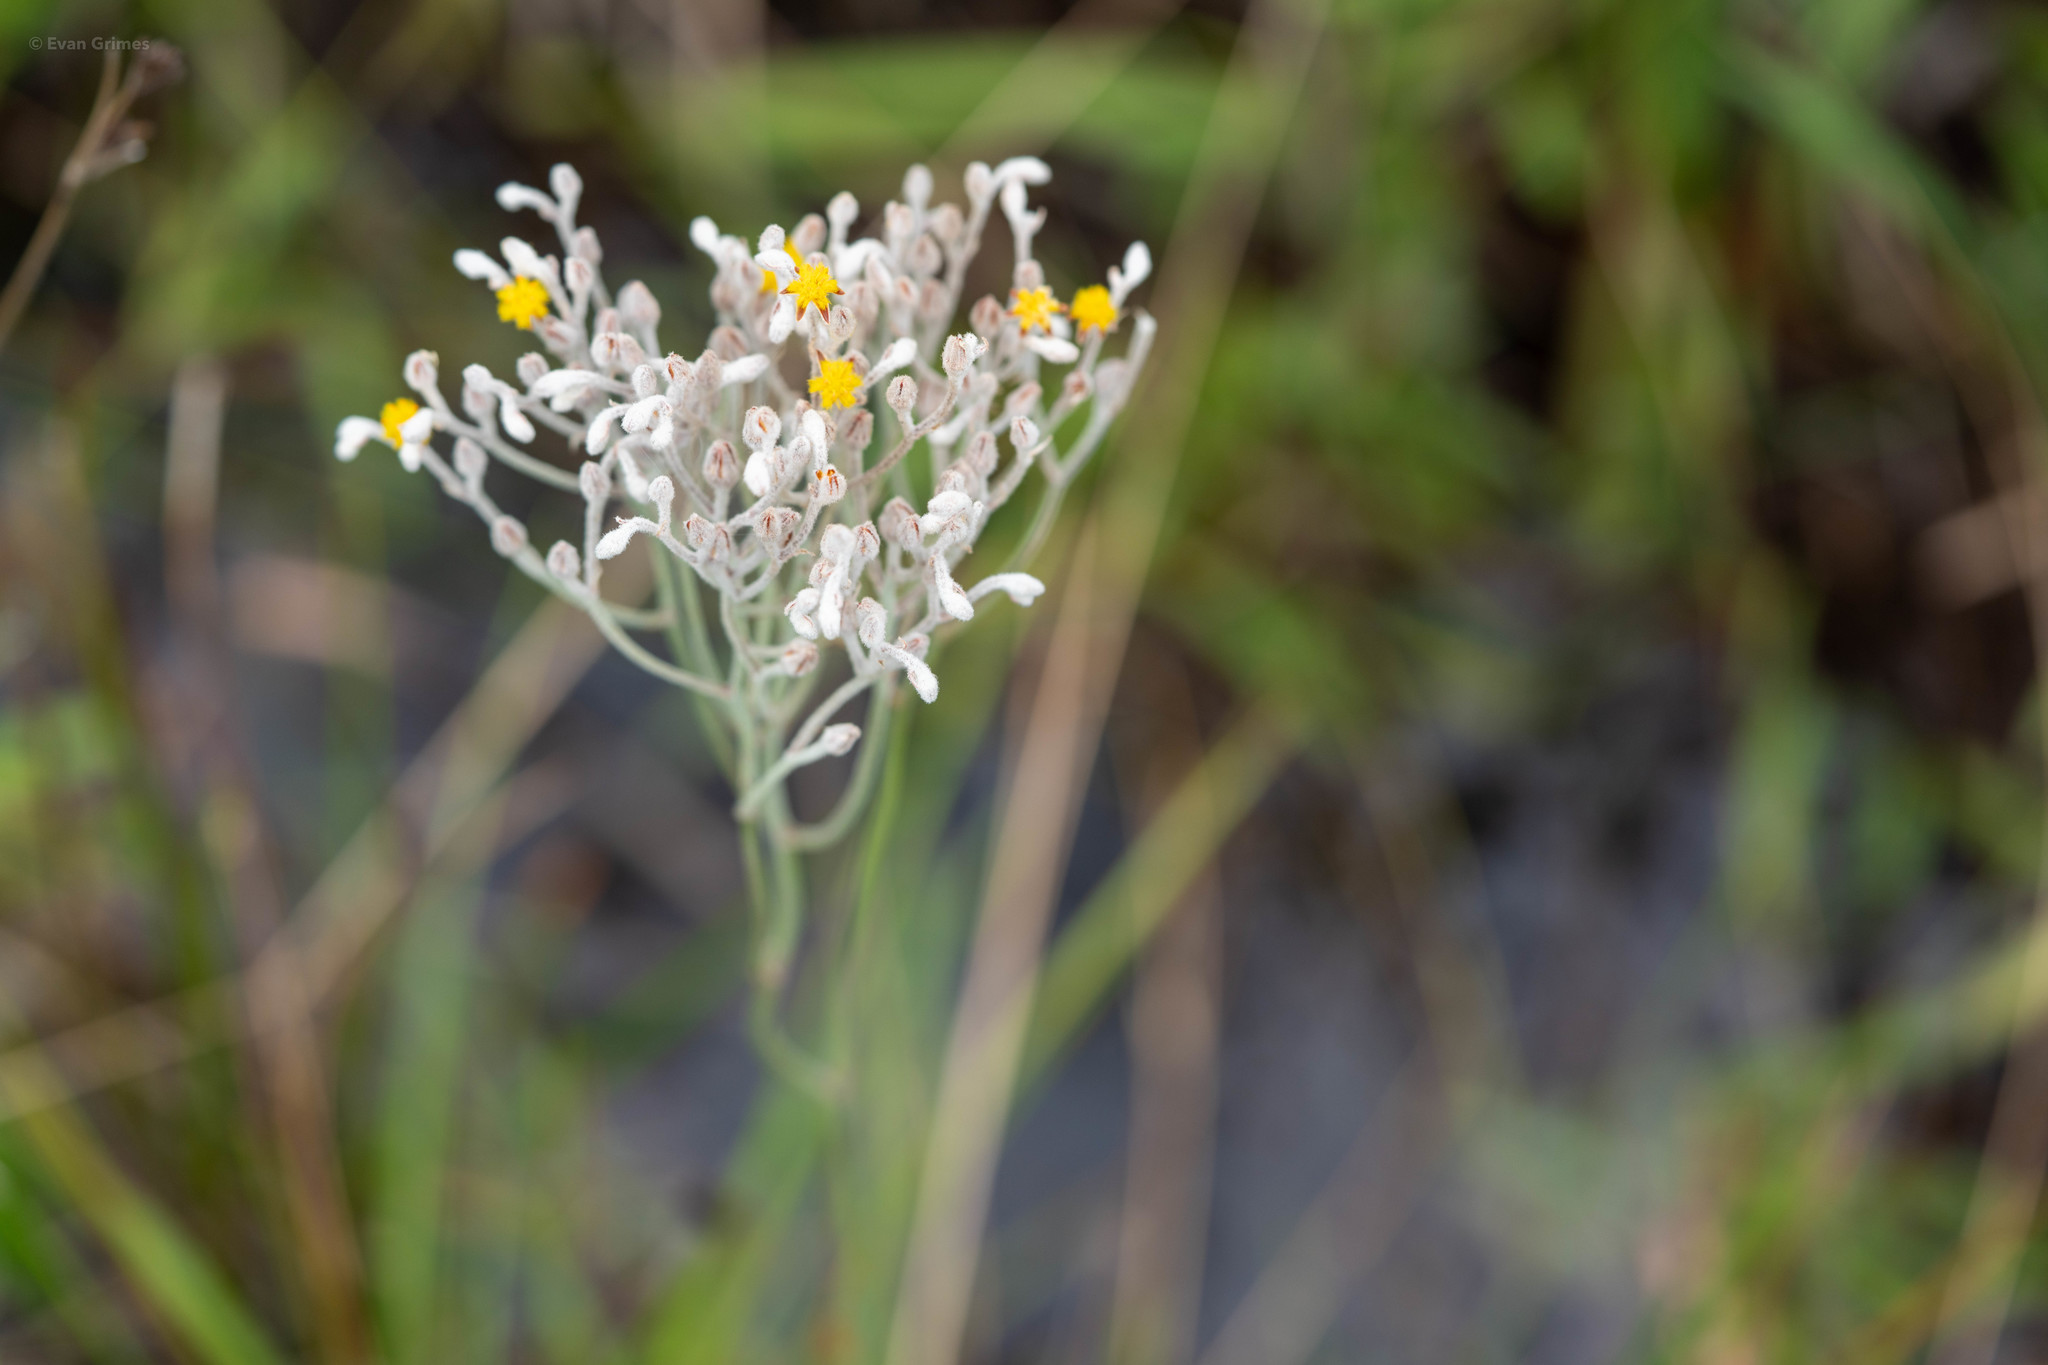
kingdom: Plantae
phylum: Tracheophyta
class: Liliopsida
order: Dioscoreales
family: Nartheciaceae
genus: Lophiola
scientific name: Lophiola aurea
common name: Golden-crest
